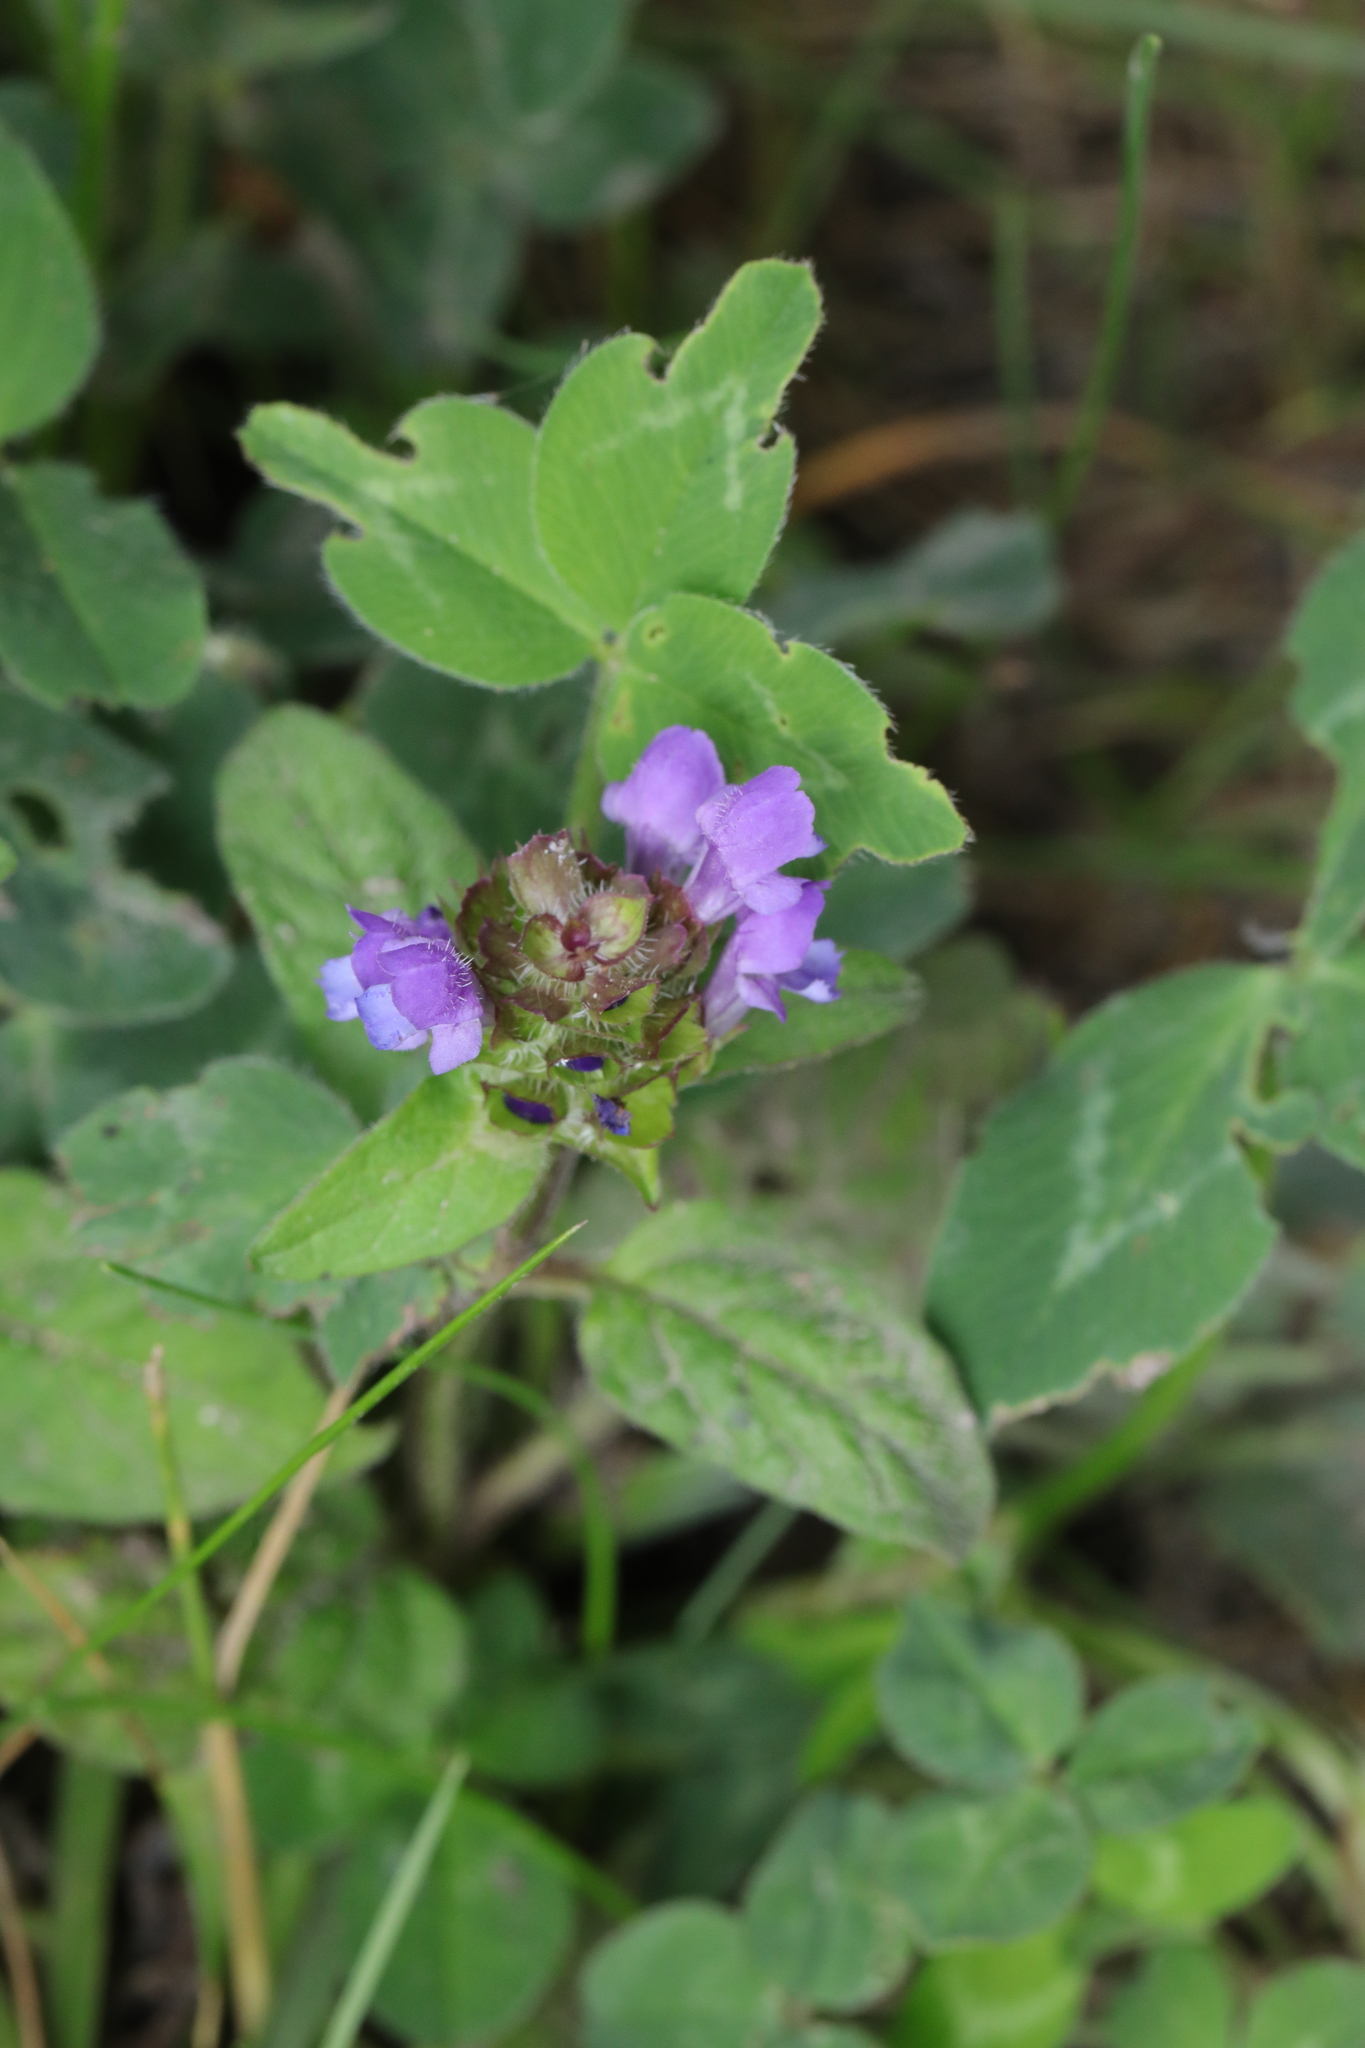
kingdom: Plantae
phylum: Tracheophyta
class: Magnoliopsida
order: Lamiales
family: Lamiaceae
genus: Prunella
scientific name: Prunella vulgaris
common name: Heal-all
